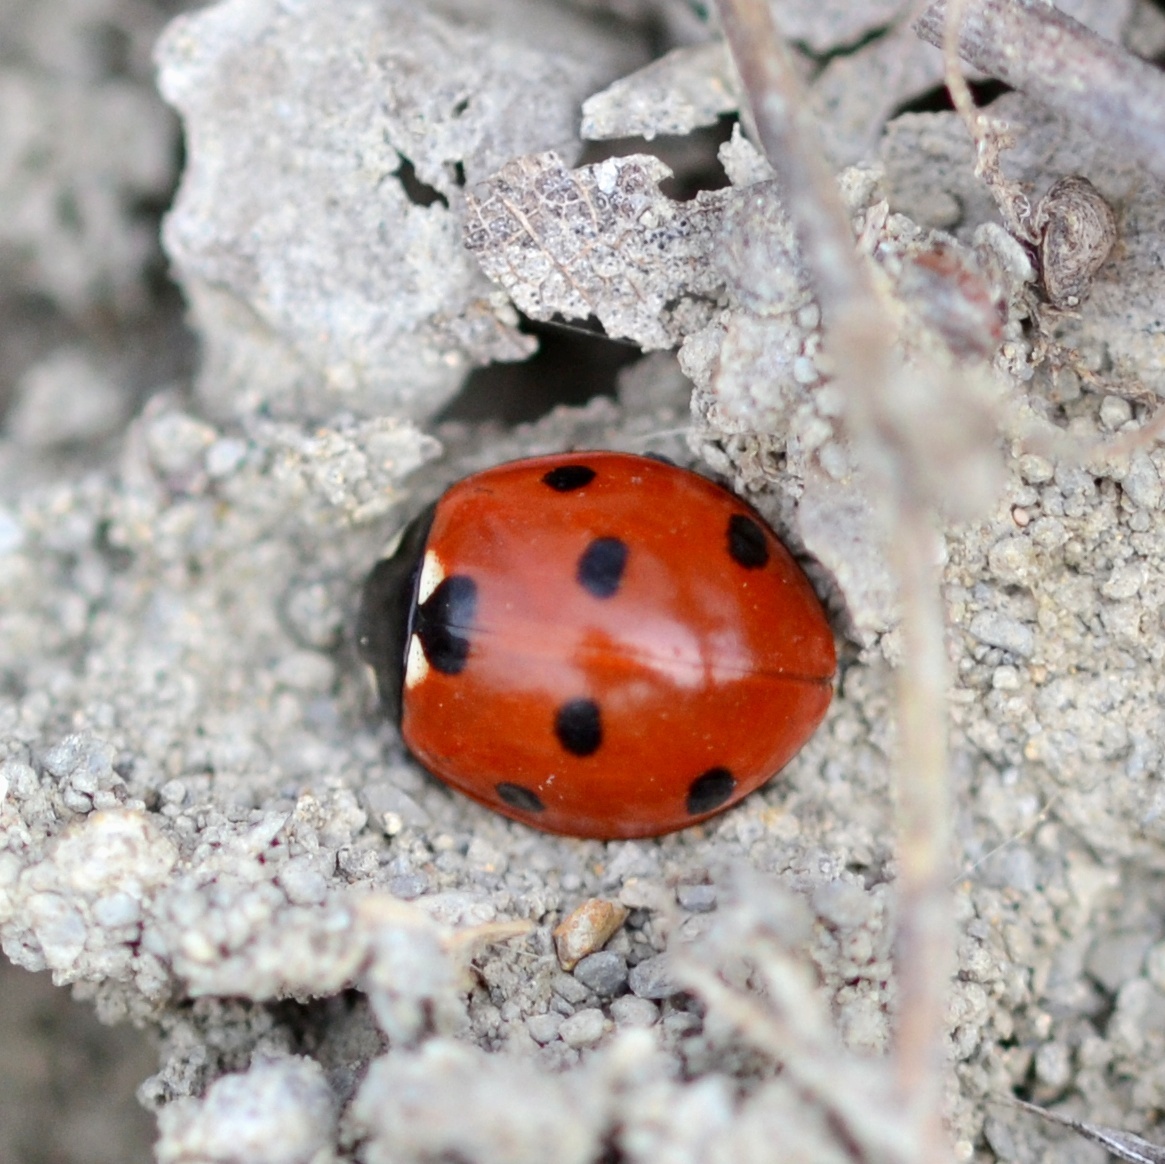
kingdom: Animalia
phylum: Arthropoda
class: Insecta
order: Coleoptera
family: Coccinellidae
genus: Coccinella
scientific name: Coccinella septempunctata
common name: Sevenspotted lady beetle
